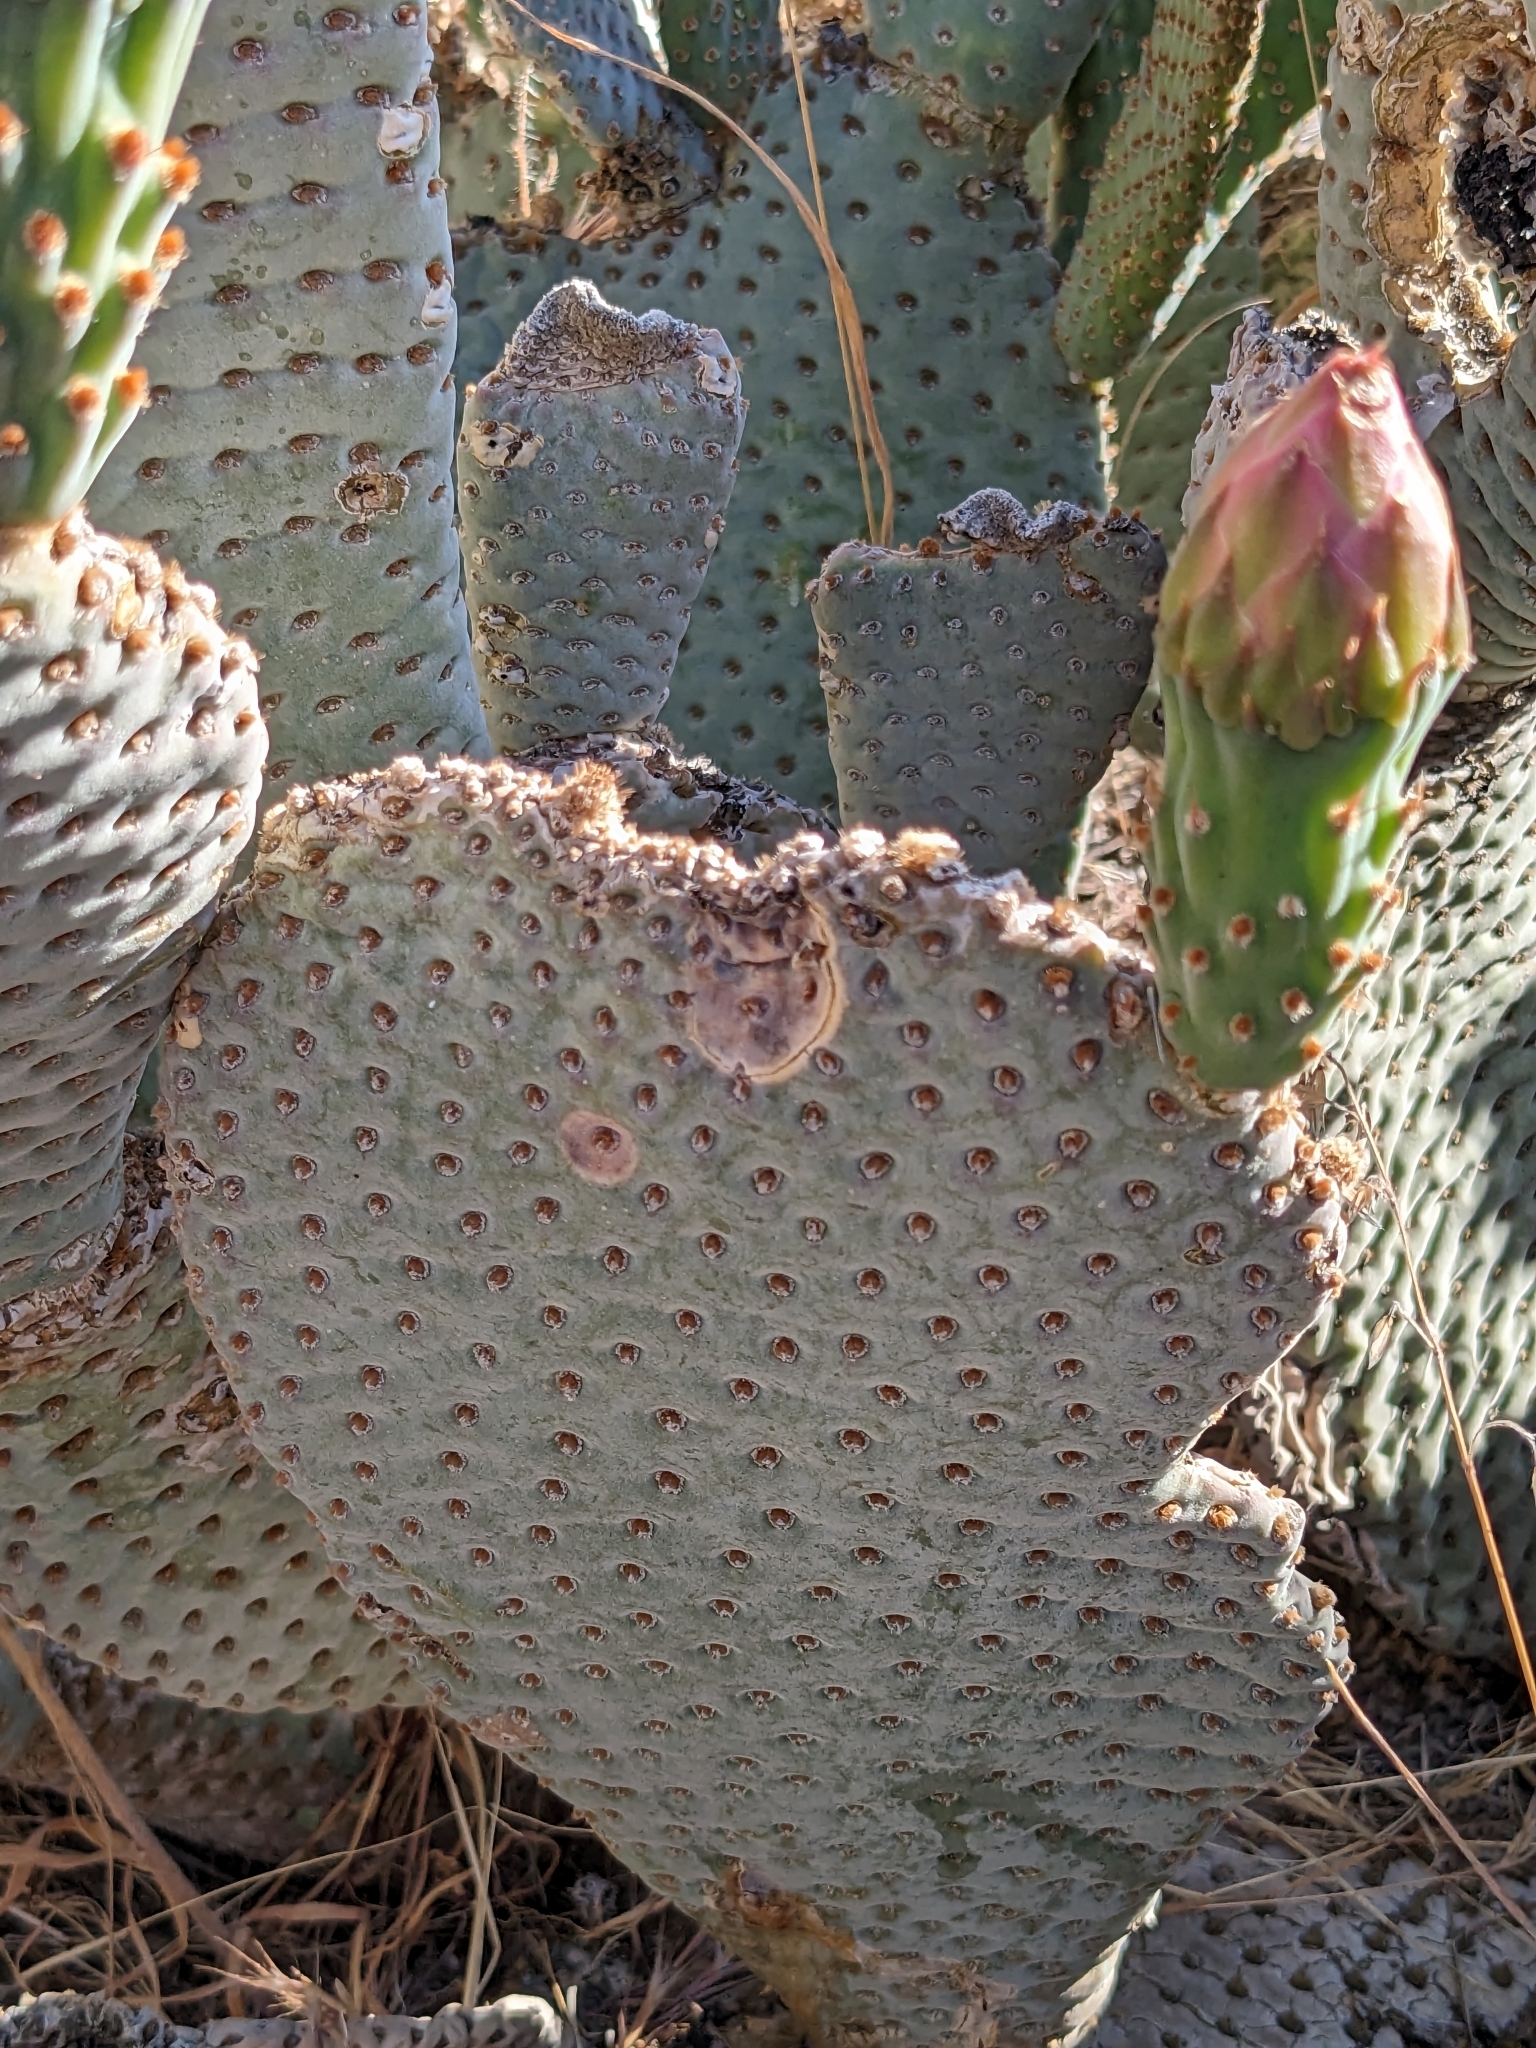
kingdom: Plantae
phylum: Tracheophyta
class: Magnoliopsida
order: Caryophyllales
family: Cactaceae
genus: Opuntia
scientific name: Opuntia basilaris
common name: Beavertail prickly-pear
